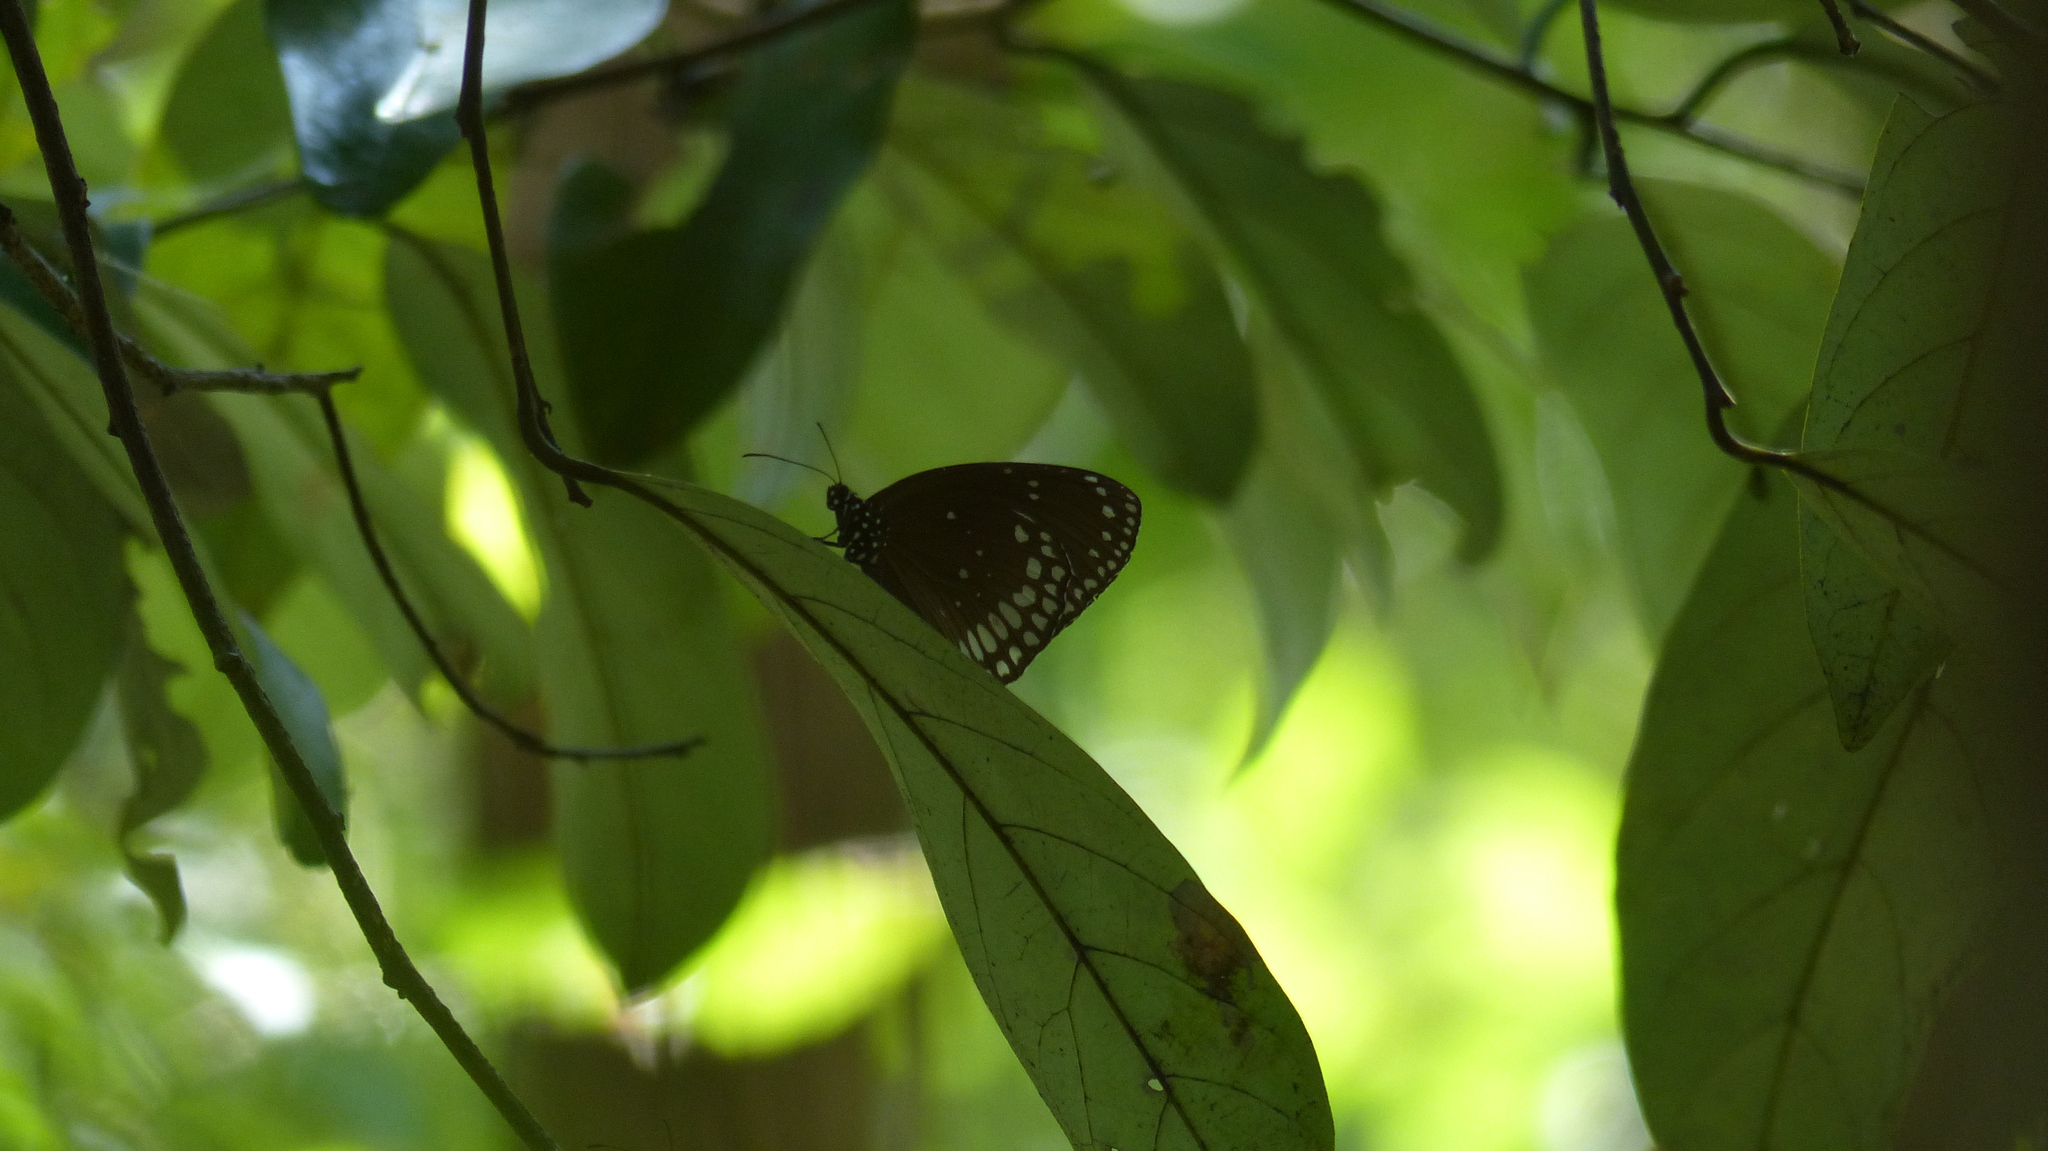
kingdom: Animalia
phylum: Arthropoda
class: Insecta
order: Lepidoptera
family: Nymphalidae
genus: Euploea
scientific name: Euploea sylvester
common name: Double-branded crow butterfly
